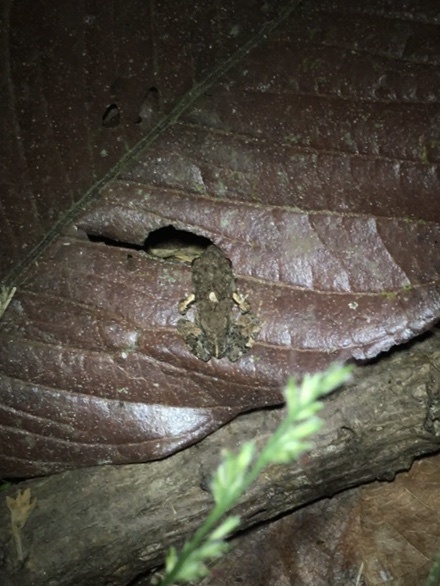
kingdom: Animalia
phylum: Chordata
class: Amphibia
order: Anura
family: Leptodactylidae
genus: Engystomops
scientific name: Engystomops pustulosus
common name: Tungara frog
